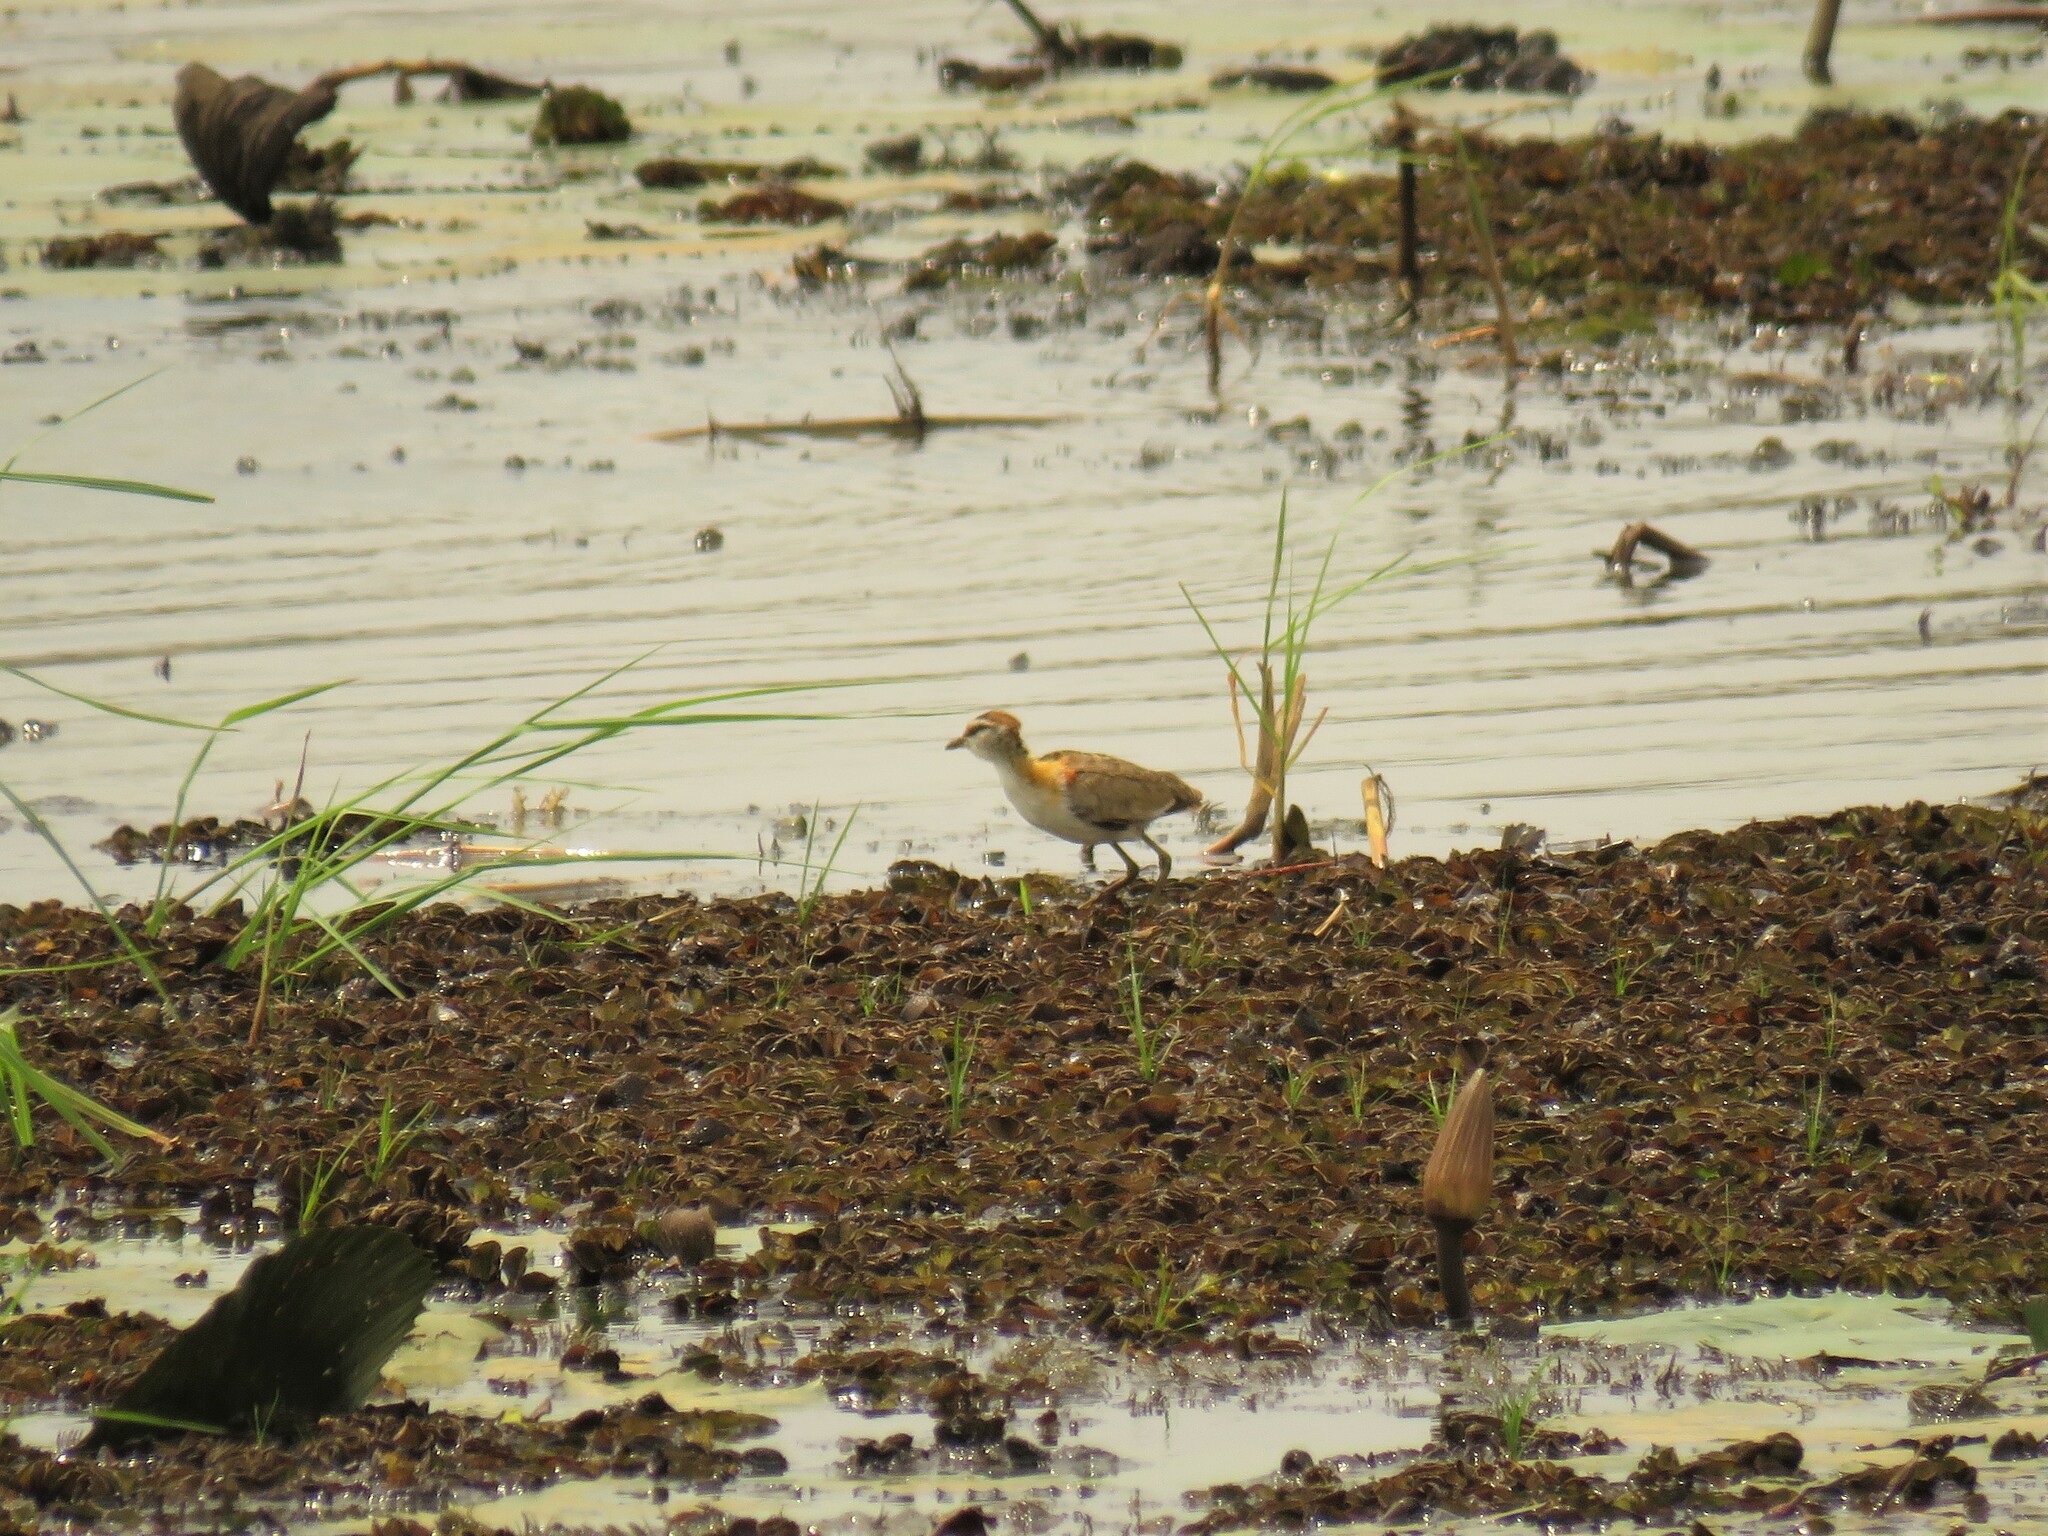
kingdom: Animalia
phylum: Chordata
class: Aves
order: Charadriiformes
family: Jacanidae
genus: Microparra
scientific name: Microparra capensis
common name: Lesser jacana
